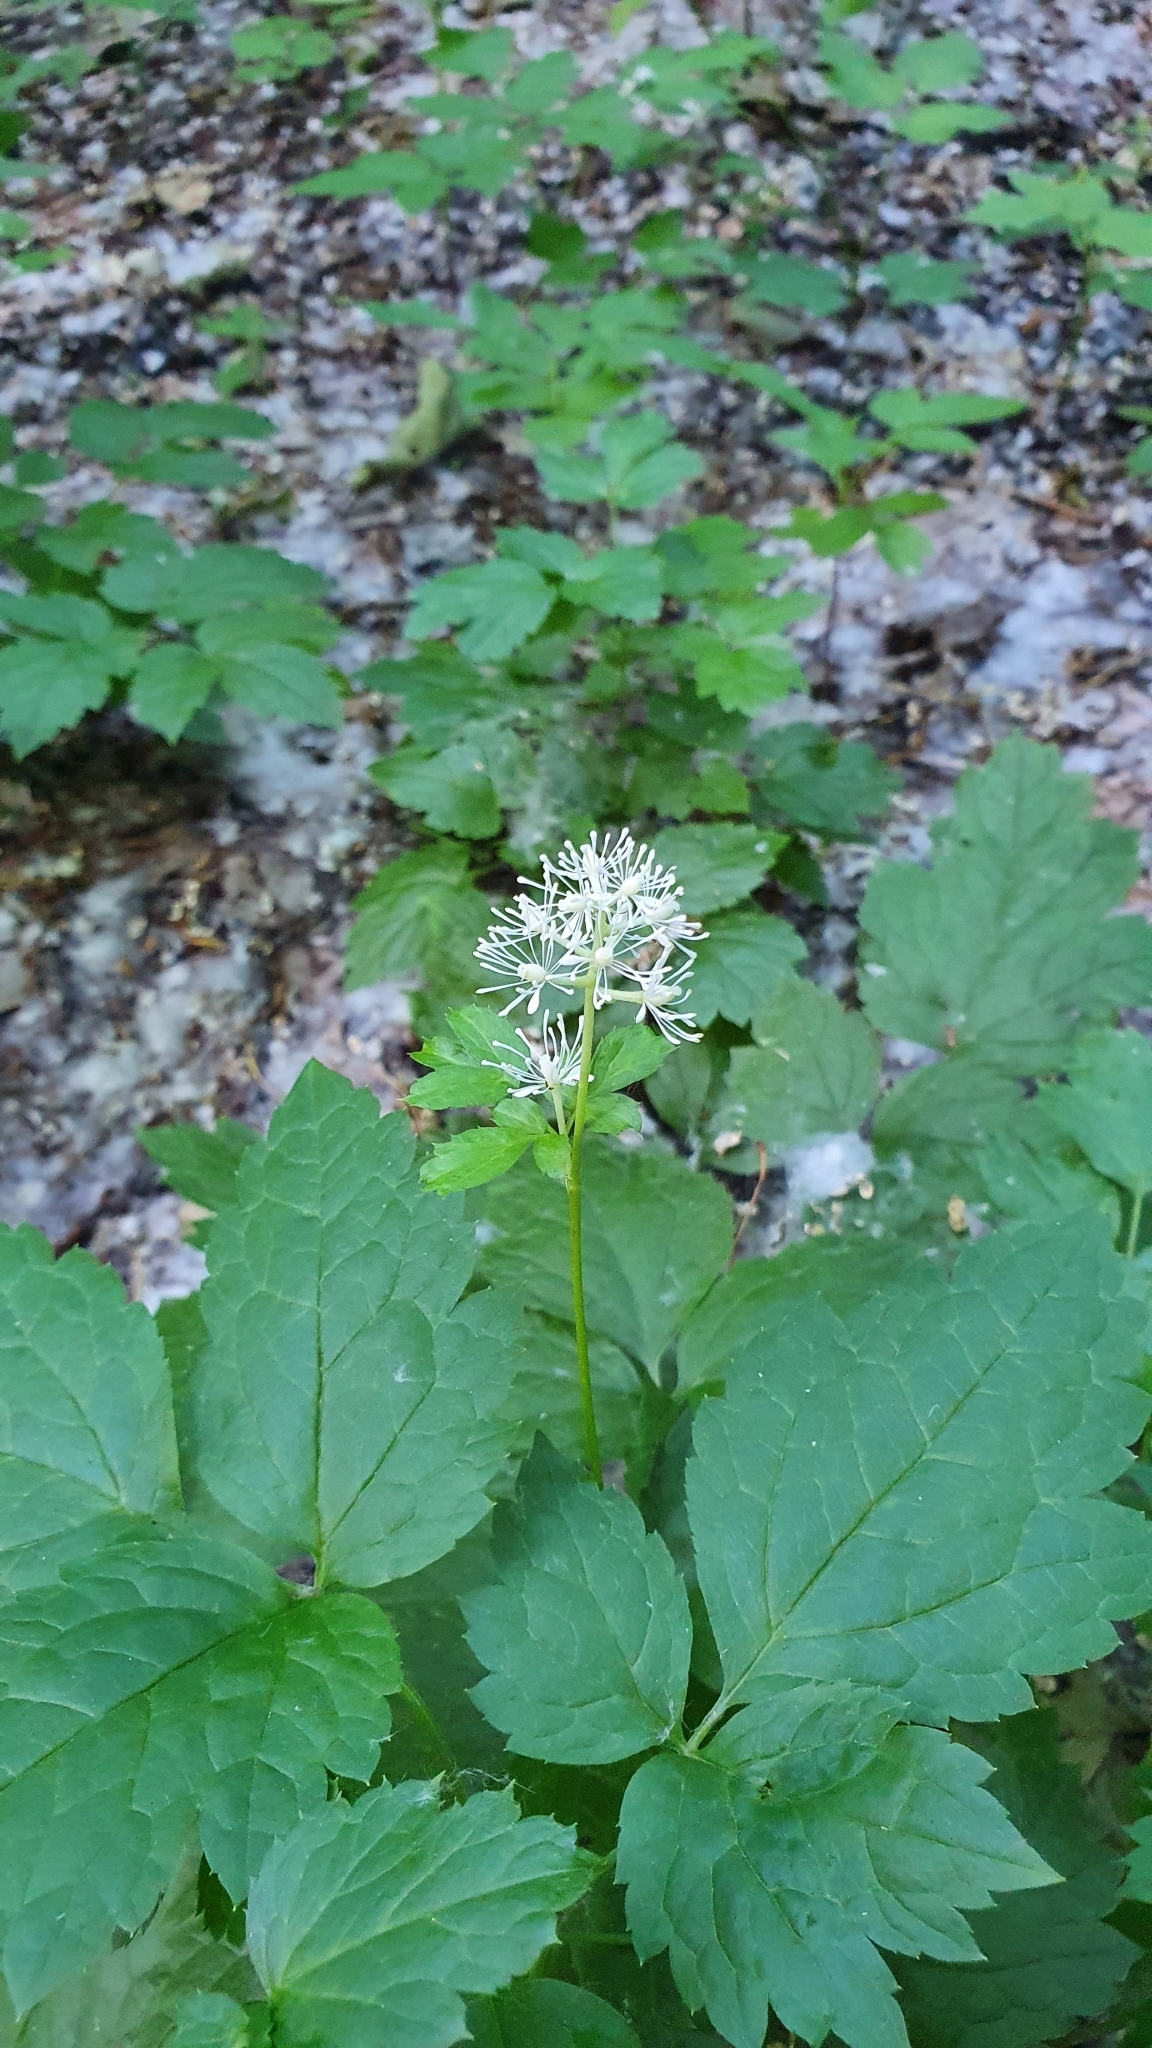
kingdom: Plantae
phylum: Tracheophyta
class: Magnoliopsida
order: Ranunculales
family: Ranunculaceae
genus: Actaea
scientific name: Actaea spicata
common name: Baneberry
